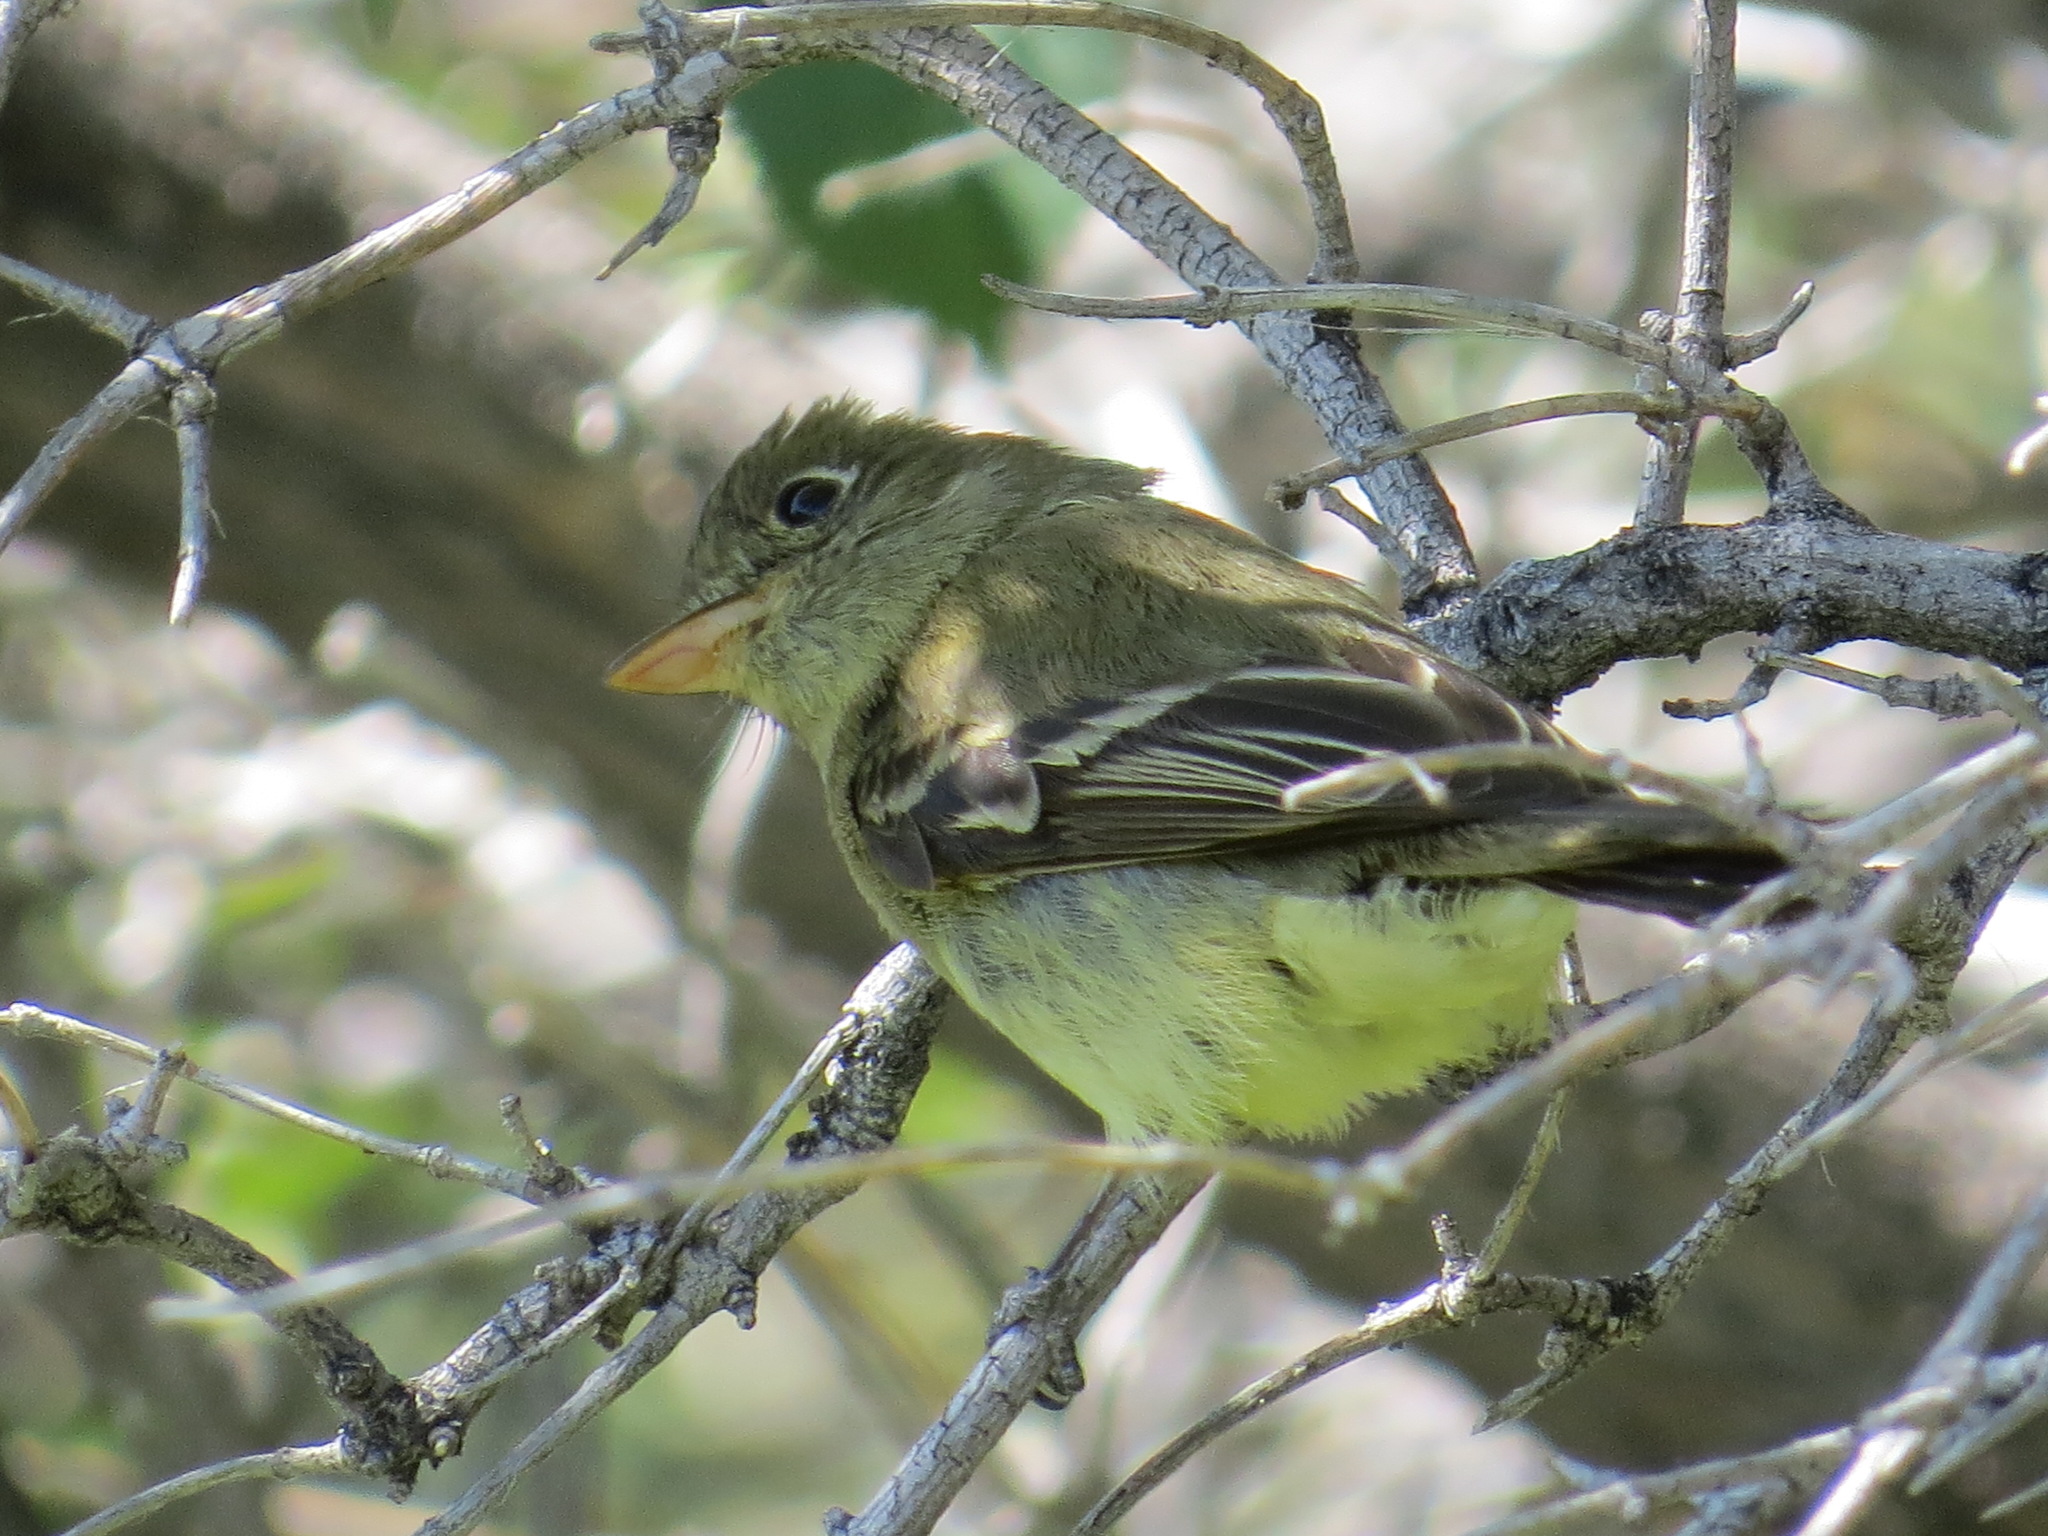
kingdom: Animalia
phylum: Chordata
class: Aves
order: Passeriformes
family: Tyrannidae
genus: Empidonax
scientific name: Empidonax difficilis
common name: Pacific-slope flycatcher
